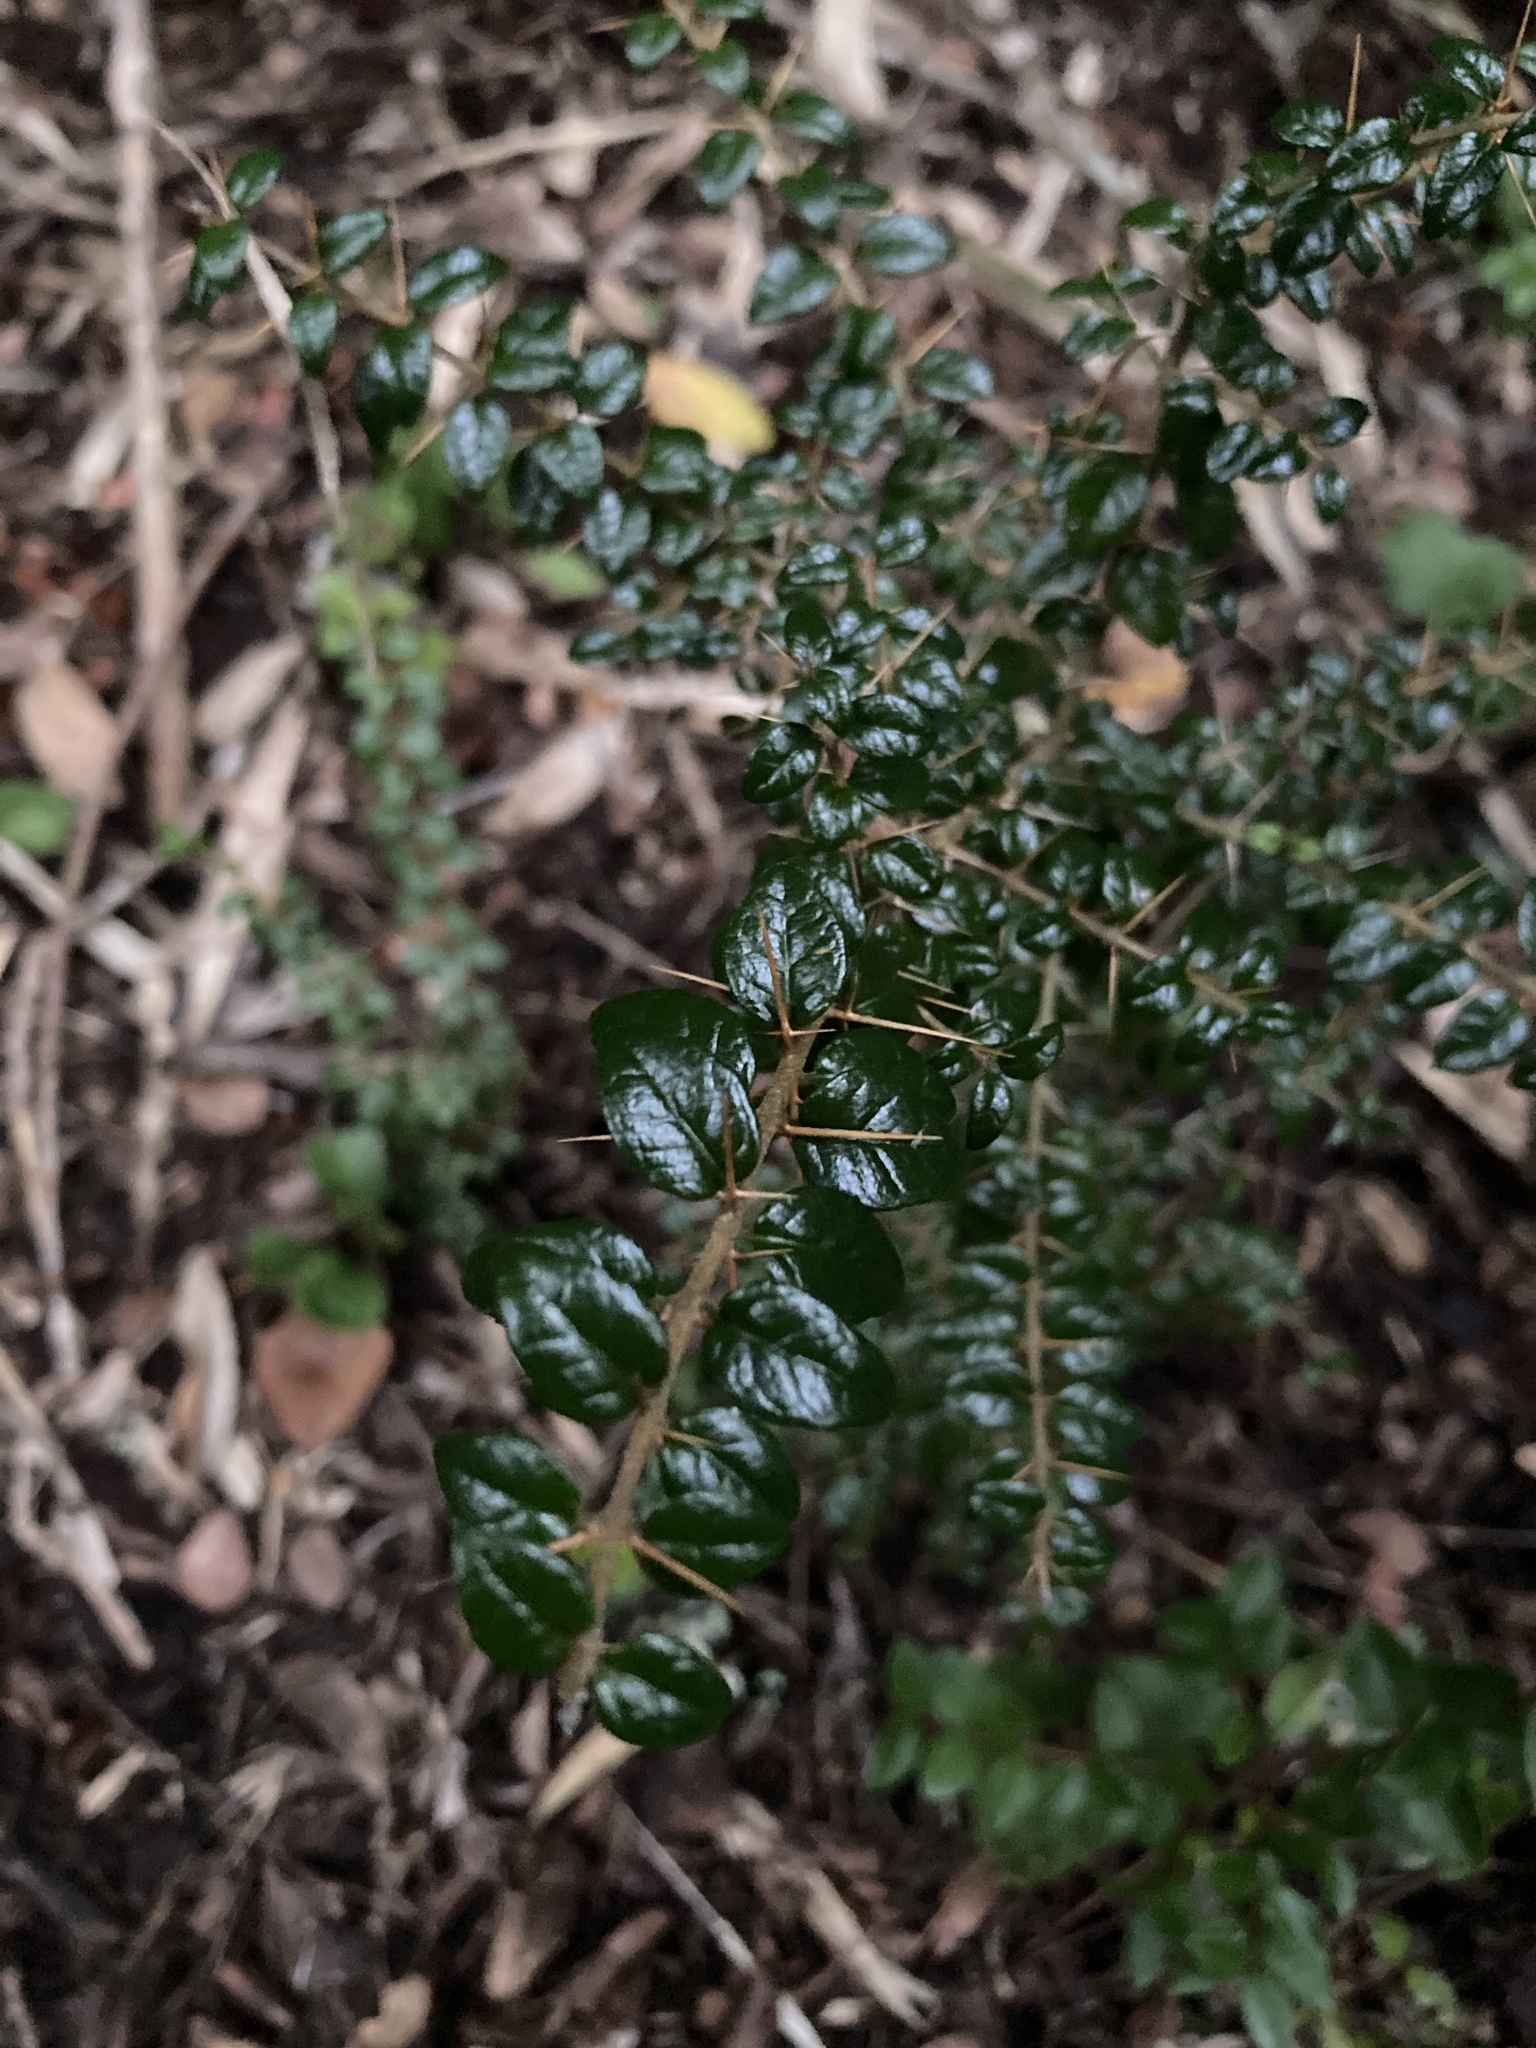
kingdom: Plantae
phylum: Tracheophyta
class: Magnoliopsida
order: Lamiales
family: Verbenaceae
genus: Rhaphithamnus
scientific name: Rhaphithamnus spinosus
